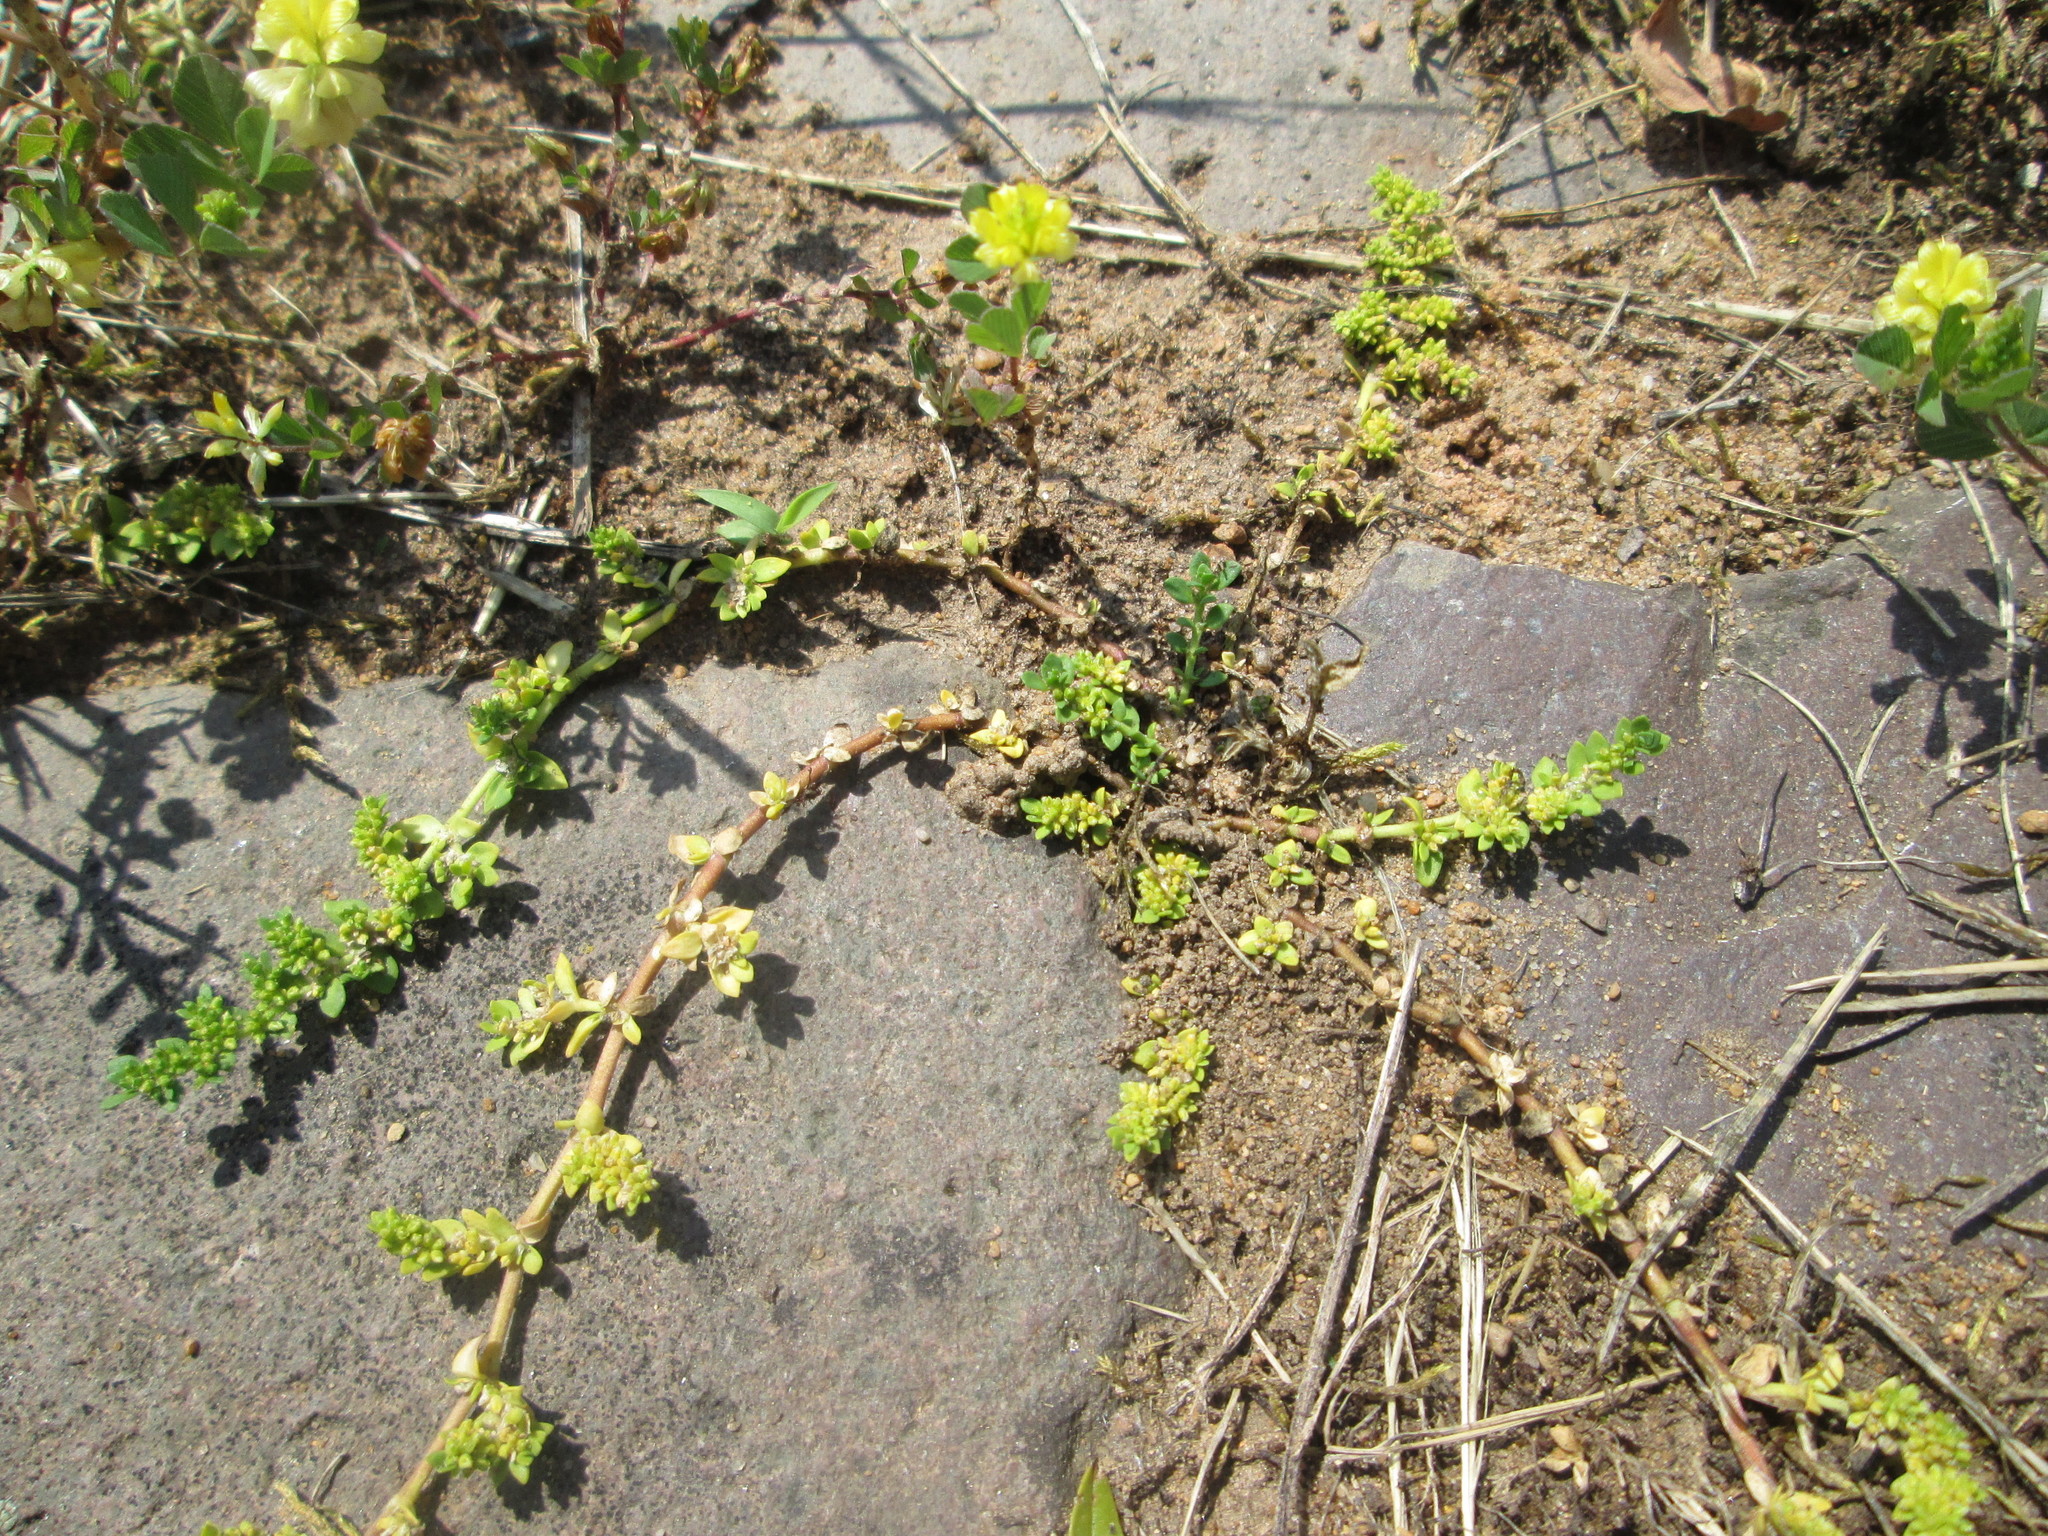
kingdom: Plantae
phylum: Tracheophyta
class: Magnoliopsida
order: Caryophyllales
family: Caryophyllaceae
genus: Herniaria
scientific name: Herniaria glabra
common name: Smooth rupturewort
